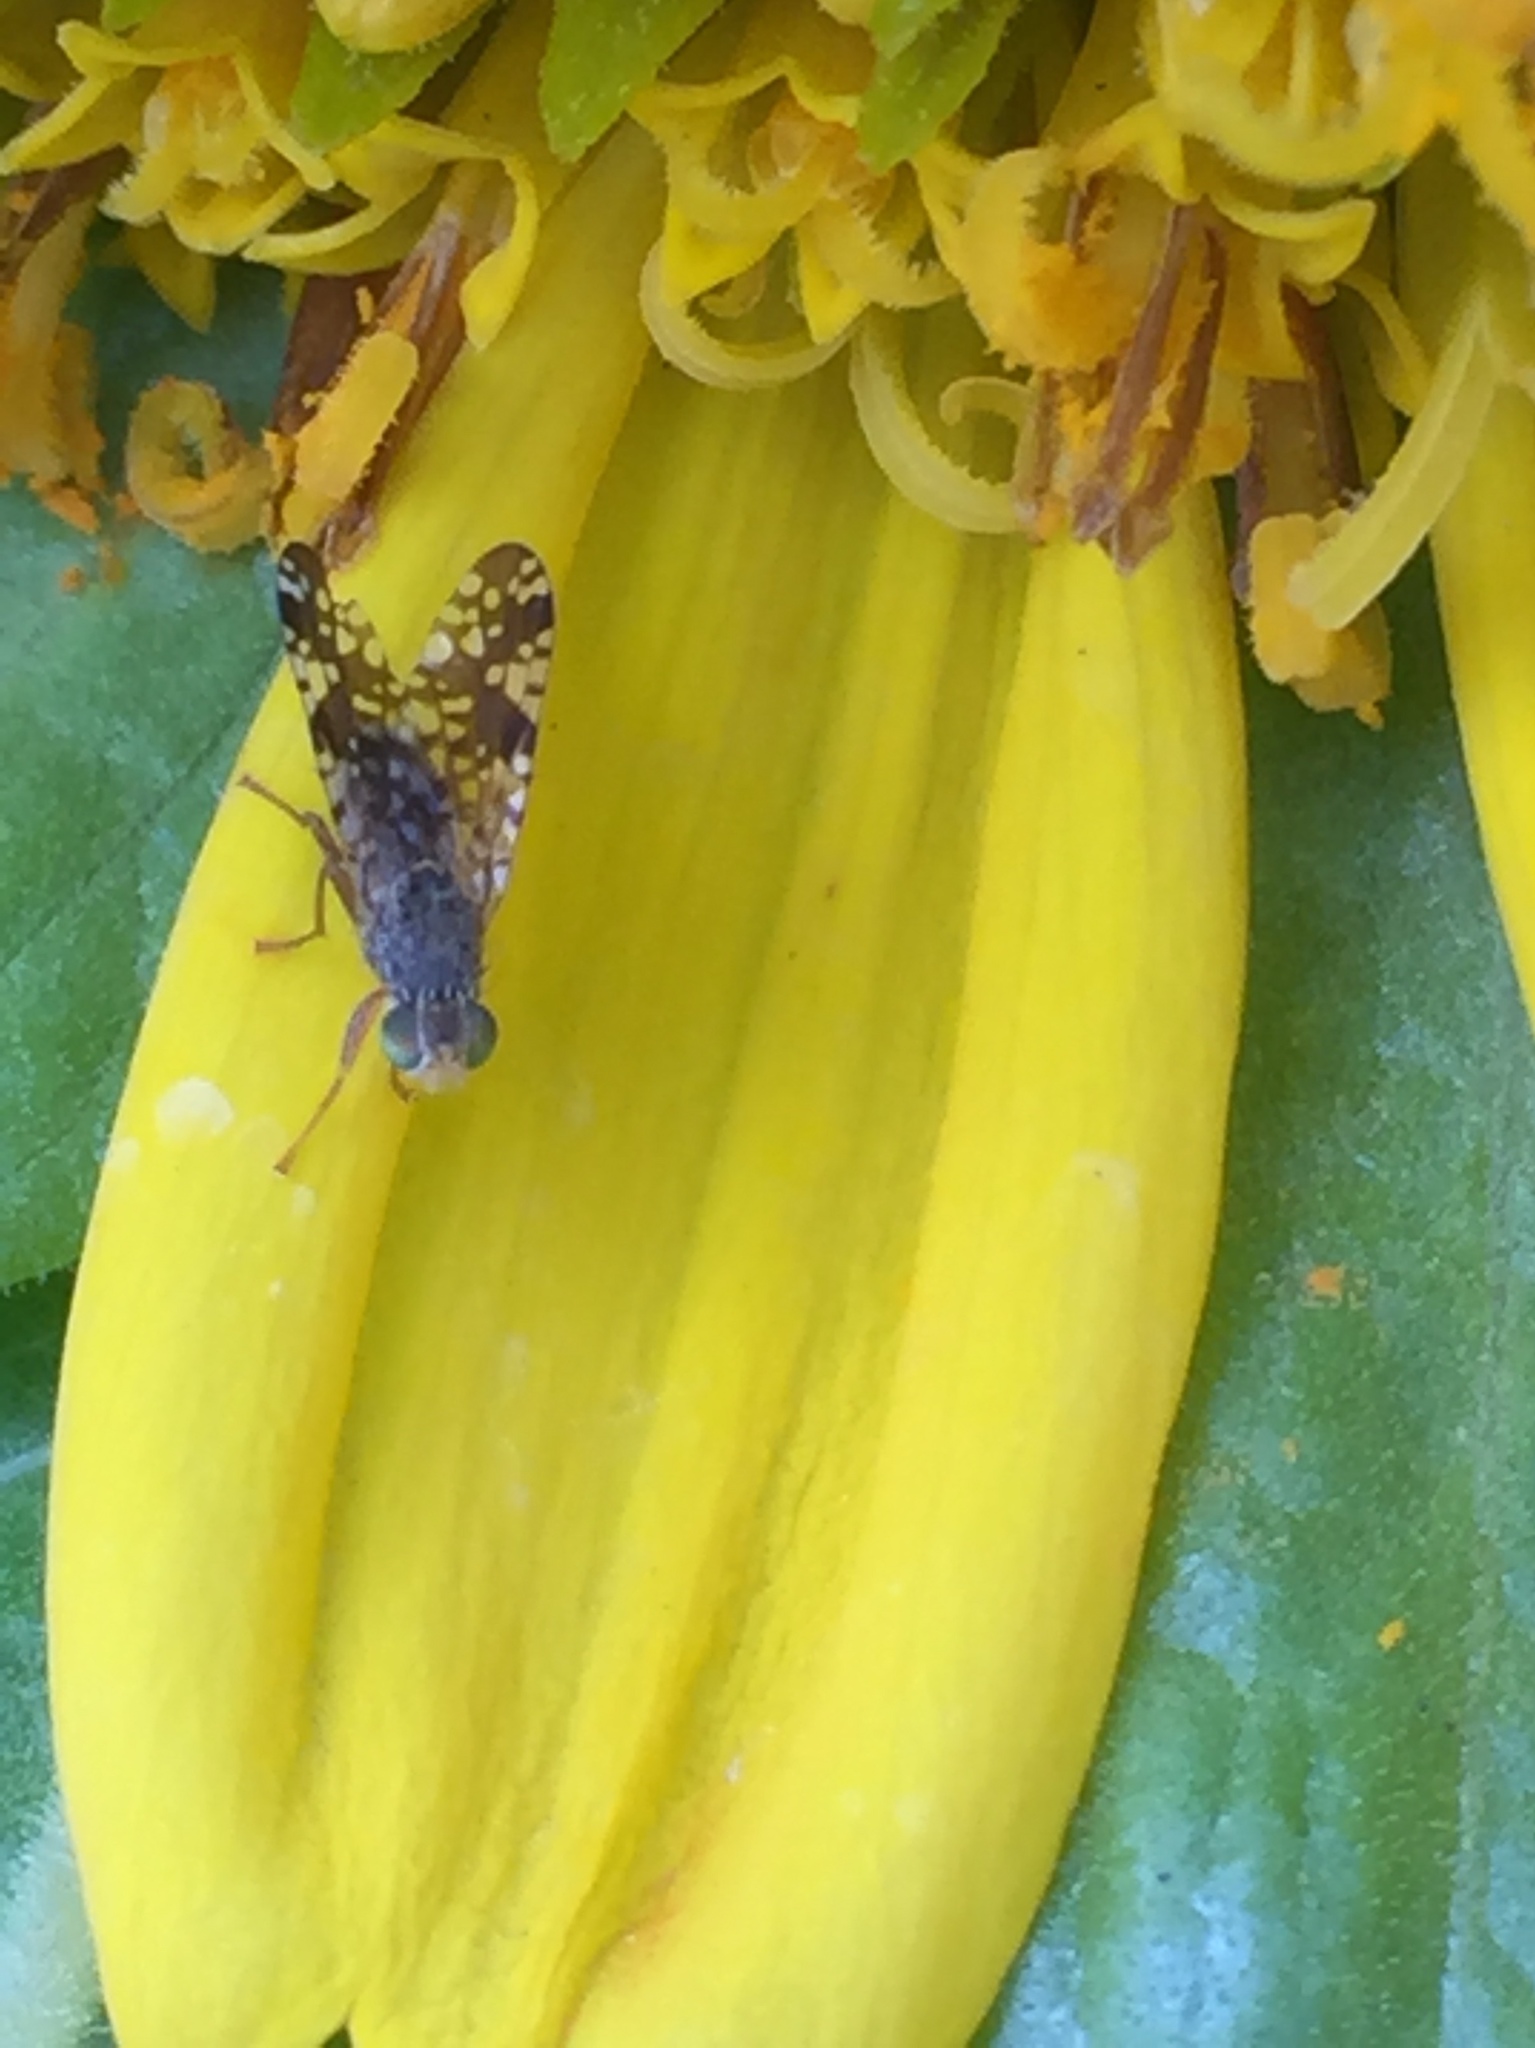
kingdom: Animalia
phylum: Arthropoda
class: Insecta
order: Diptera
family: Tephritidae
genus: Neotephritis
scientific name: Neotephritis finalis
